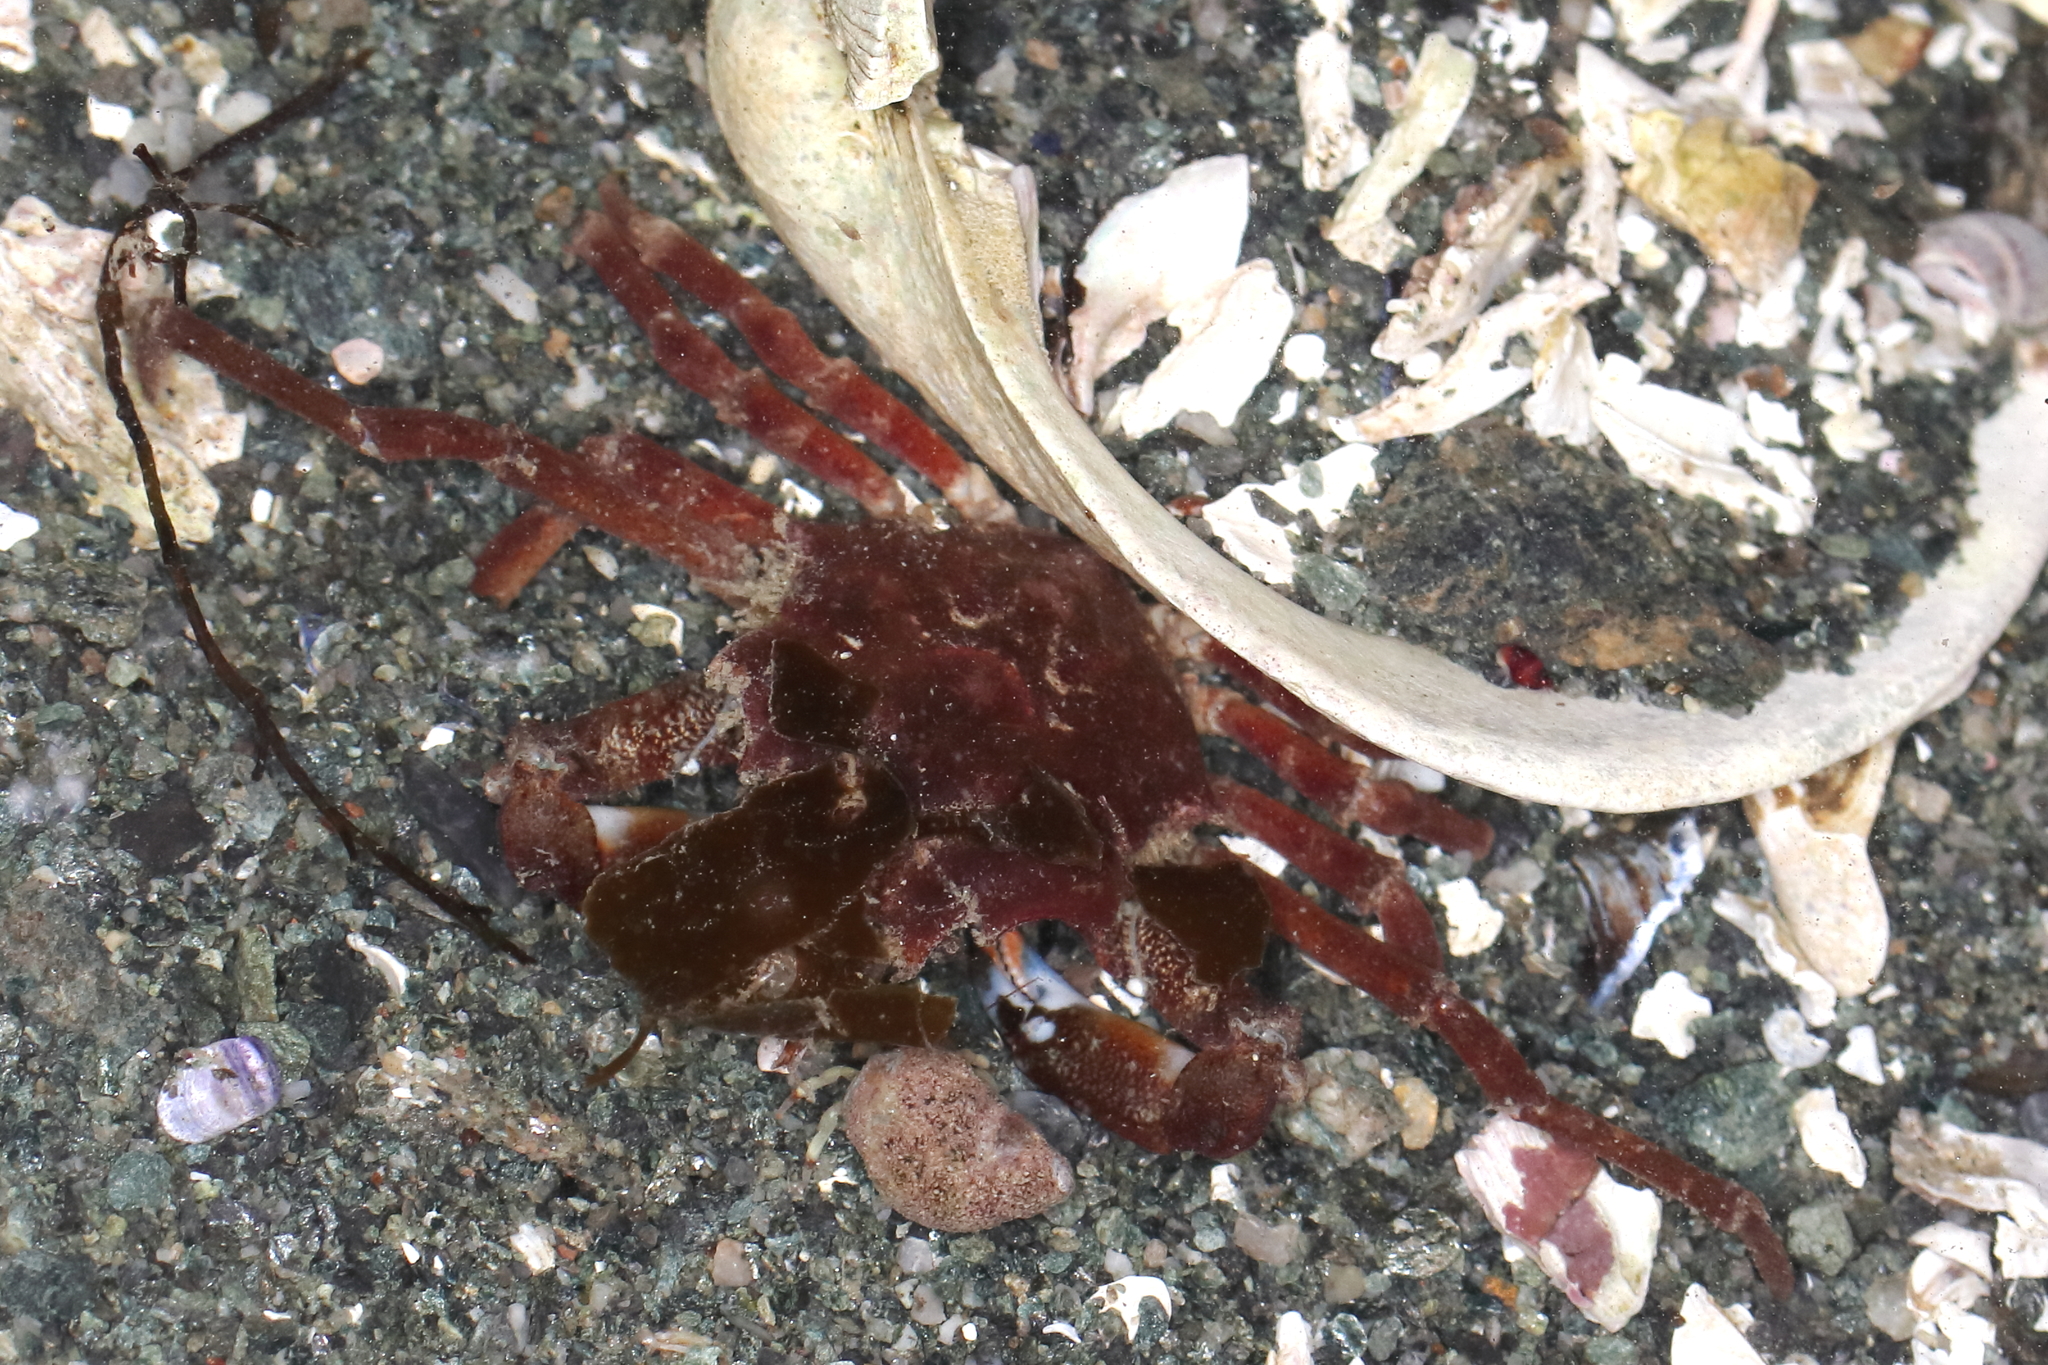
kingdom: Animalia
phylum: Arthropoda
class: Malacostraca
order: Decapoda
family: Epialtidae
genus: Pugettia
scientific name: Pugettia gracilis
